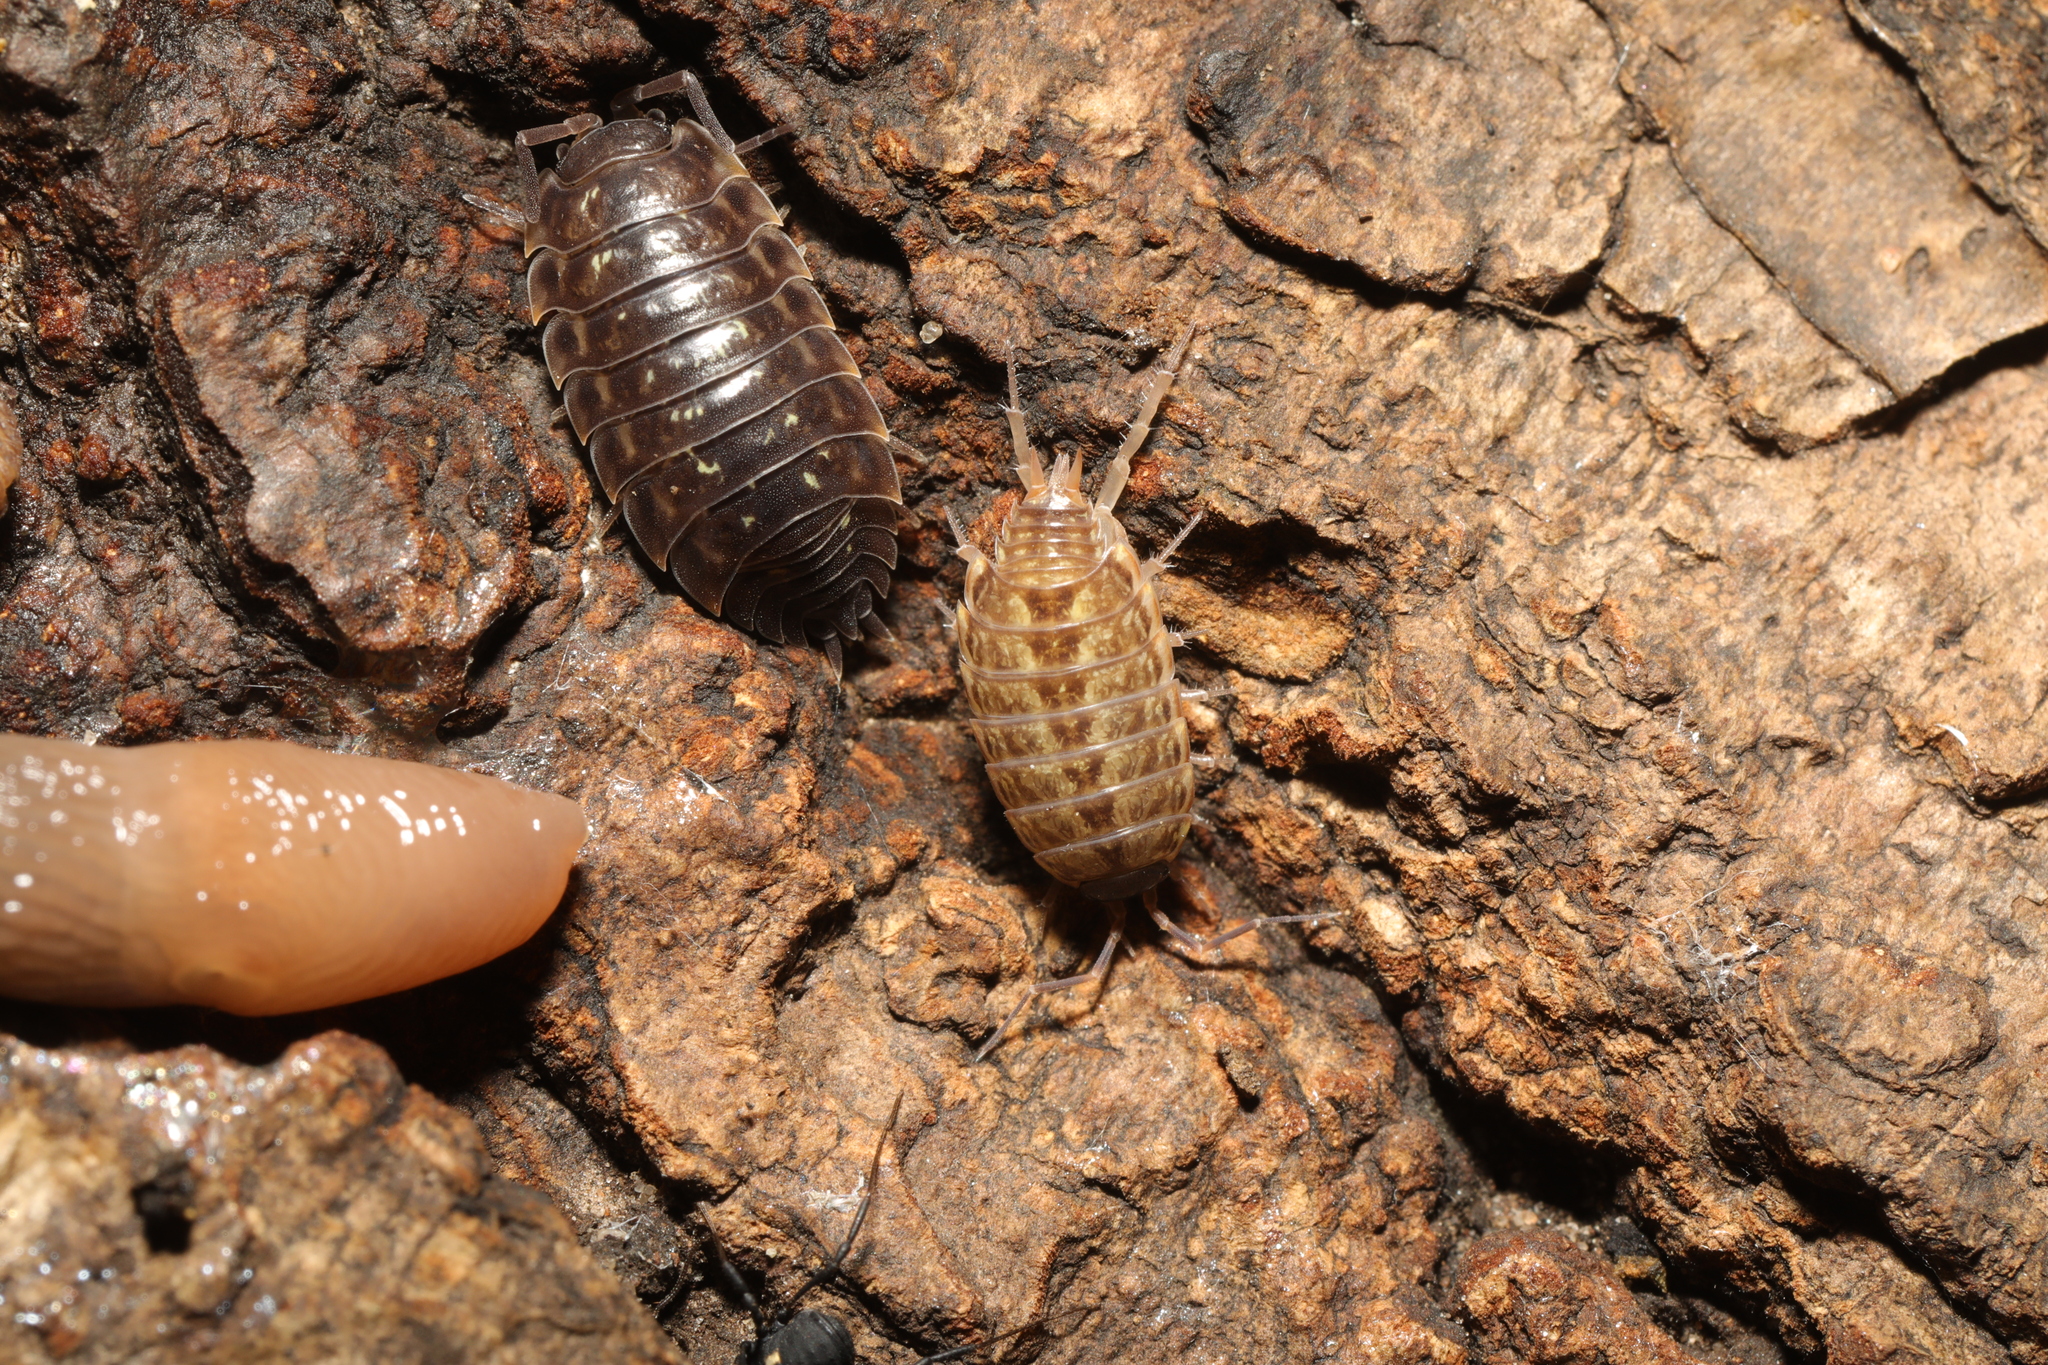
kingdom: Animalia
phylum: Arthropoda
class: Malacostraca
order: Isopoda
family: Philosciidae
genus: Philoscia
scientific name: Philoscia muscorum
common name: Common striped woodlouse
